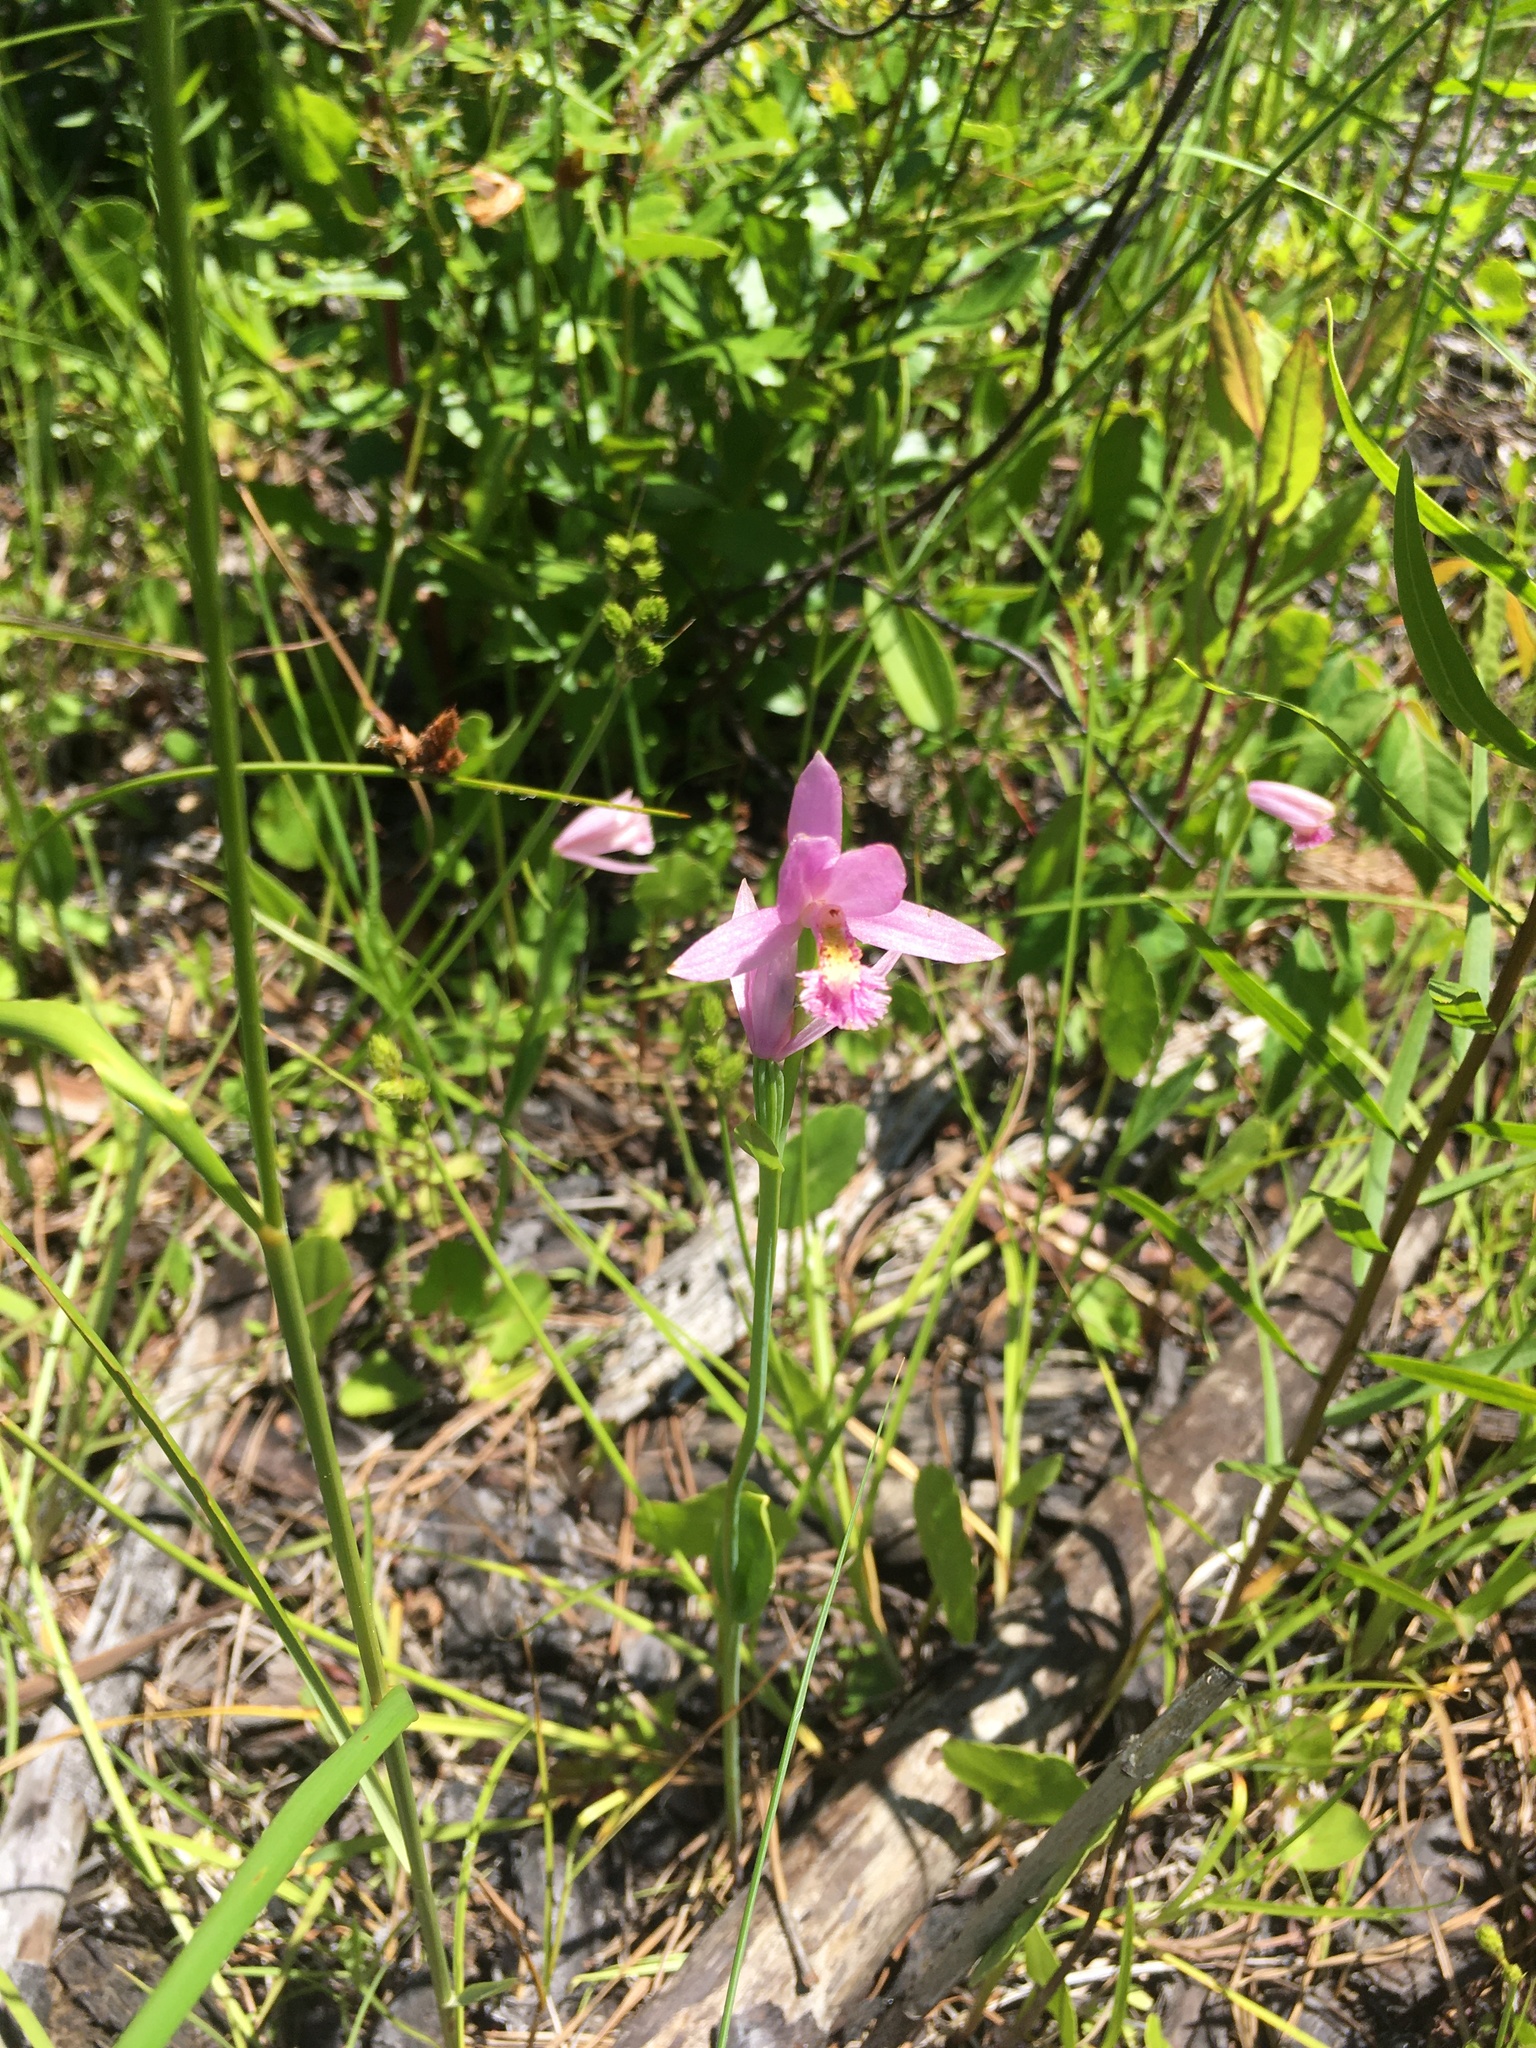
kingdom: Plantae
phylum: Tracheophyta
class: Liliopsida
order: Asparagales
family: Orchidaceae
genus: Pogonia
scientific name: Pogonia ophioglossoides
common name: Rose pogonia
